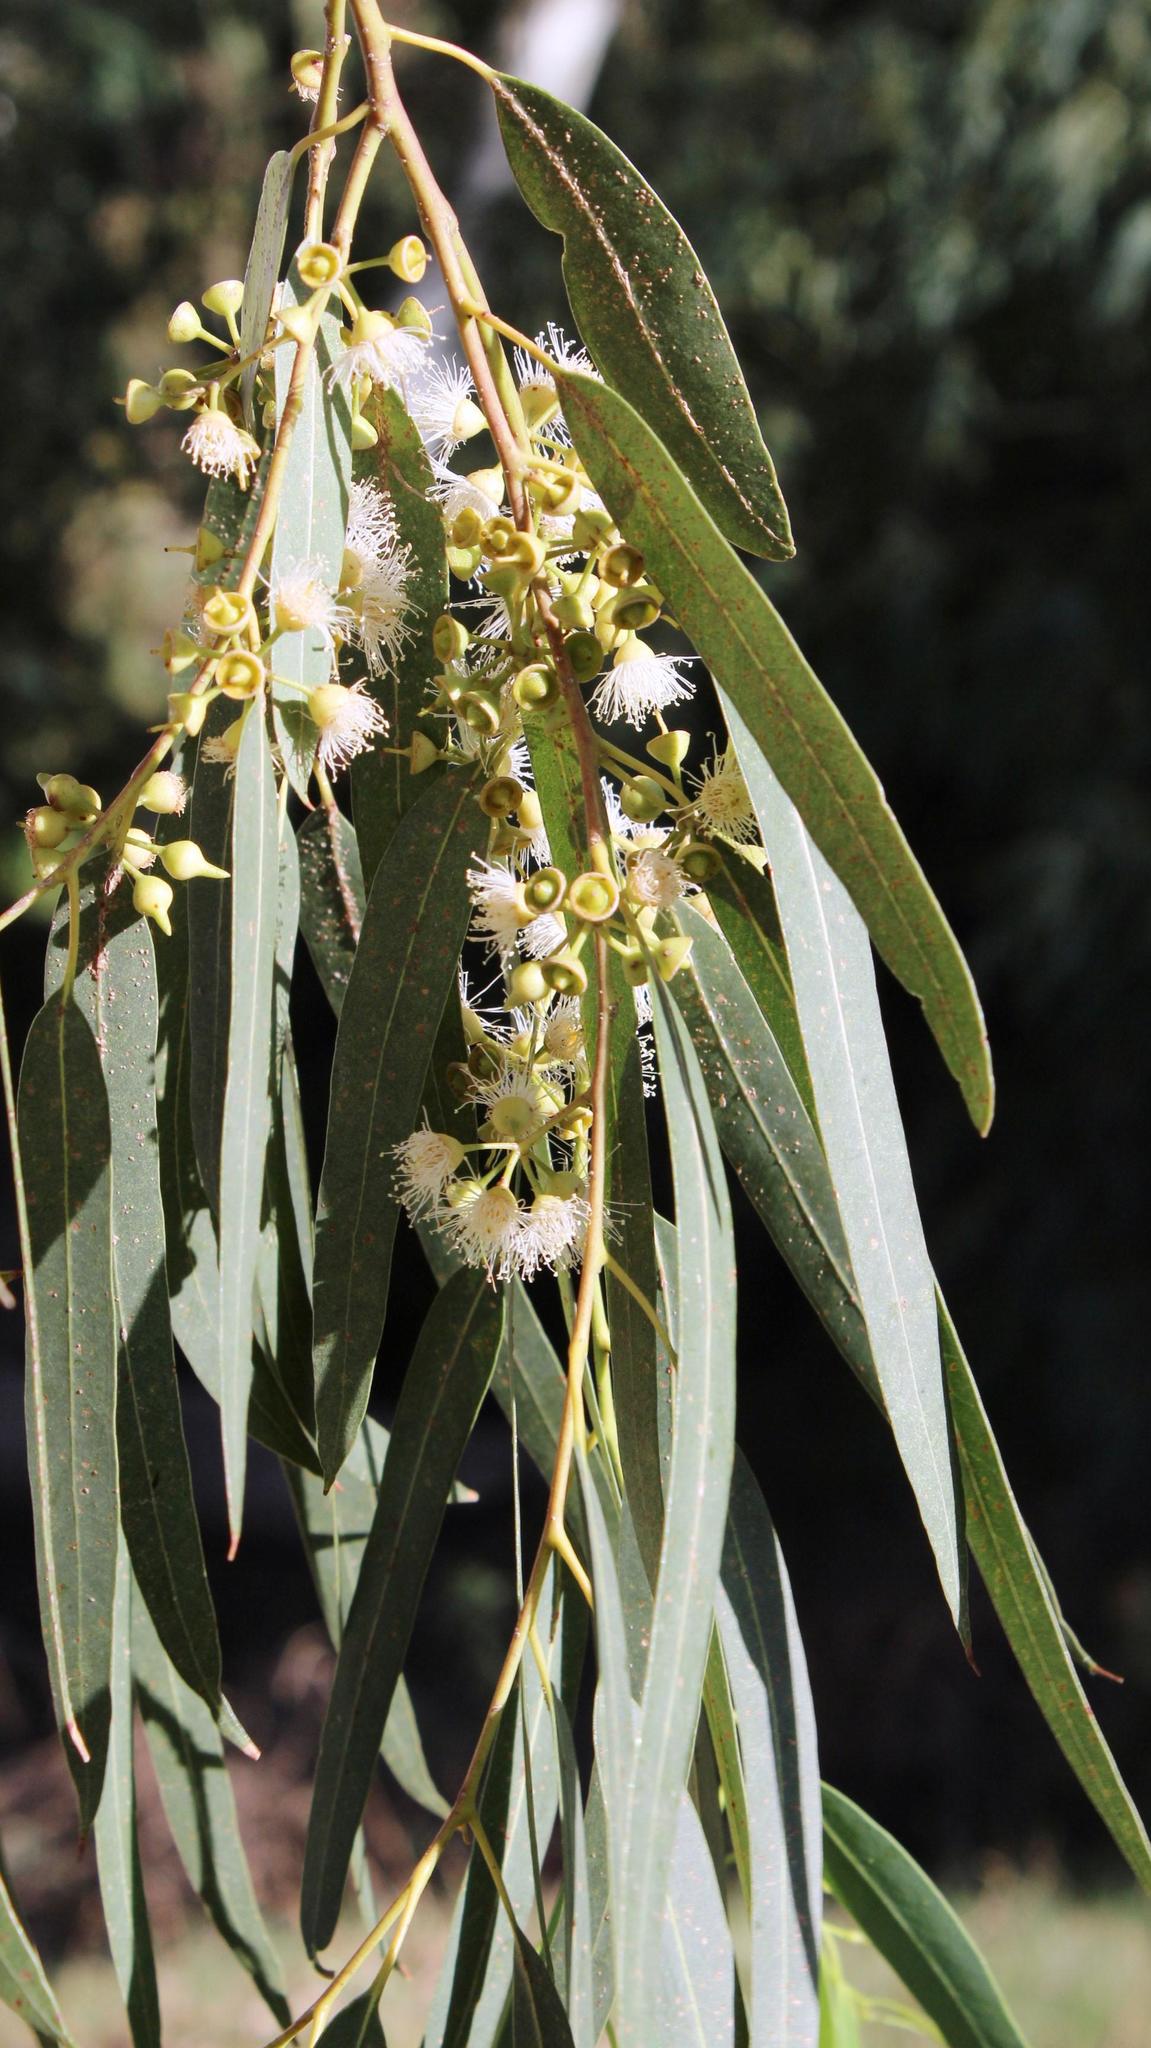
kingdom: Plantae
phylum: Tracheophyta
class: Magnoliopsida
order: Myrtales
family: Myrtaceae
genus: Eucalyptus
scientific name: Eucalyptus camaldulensis
